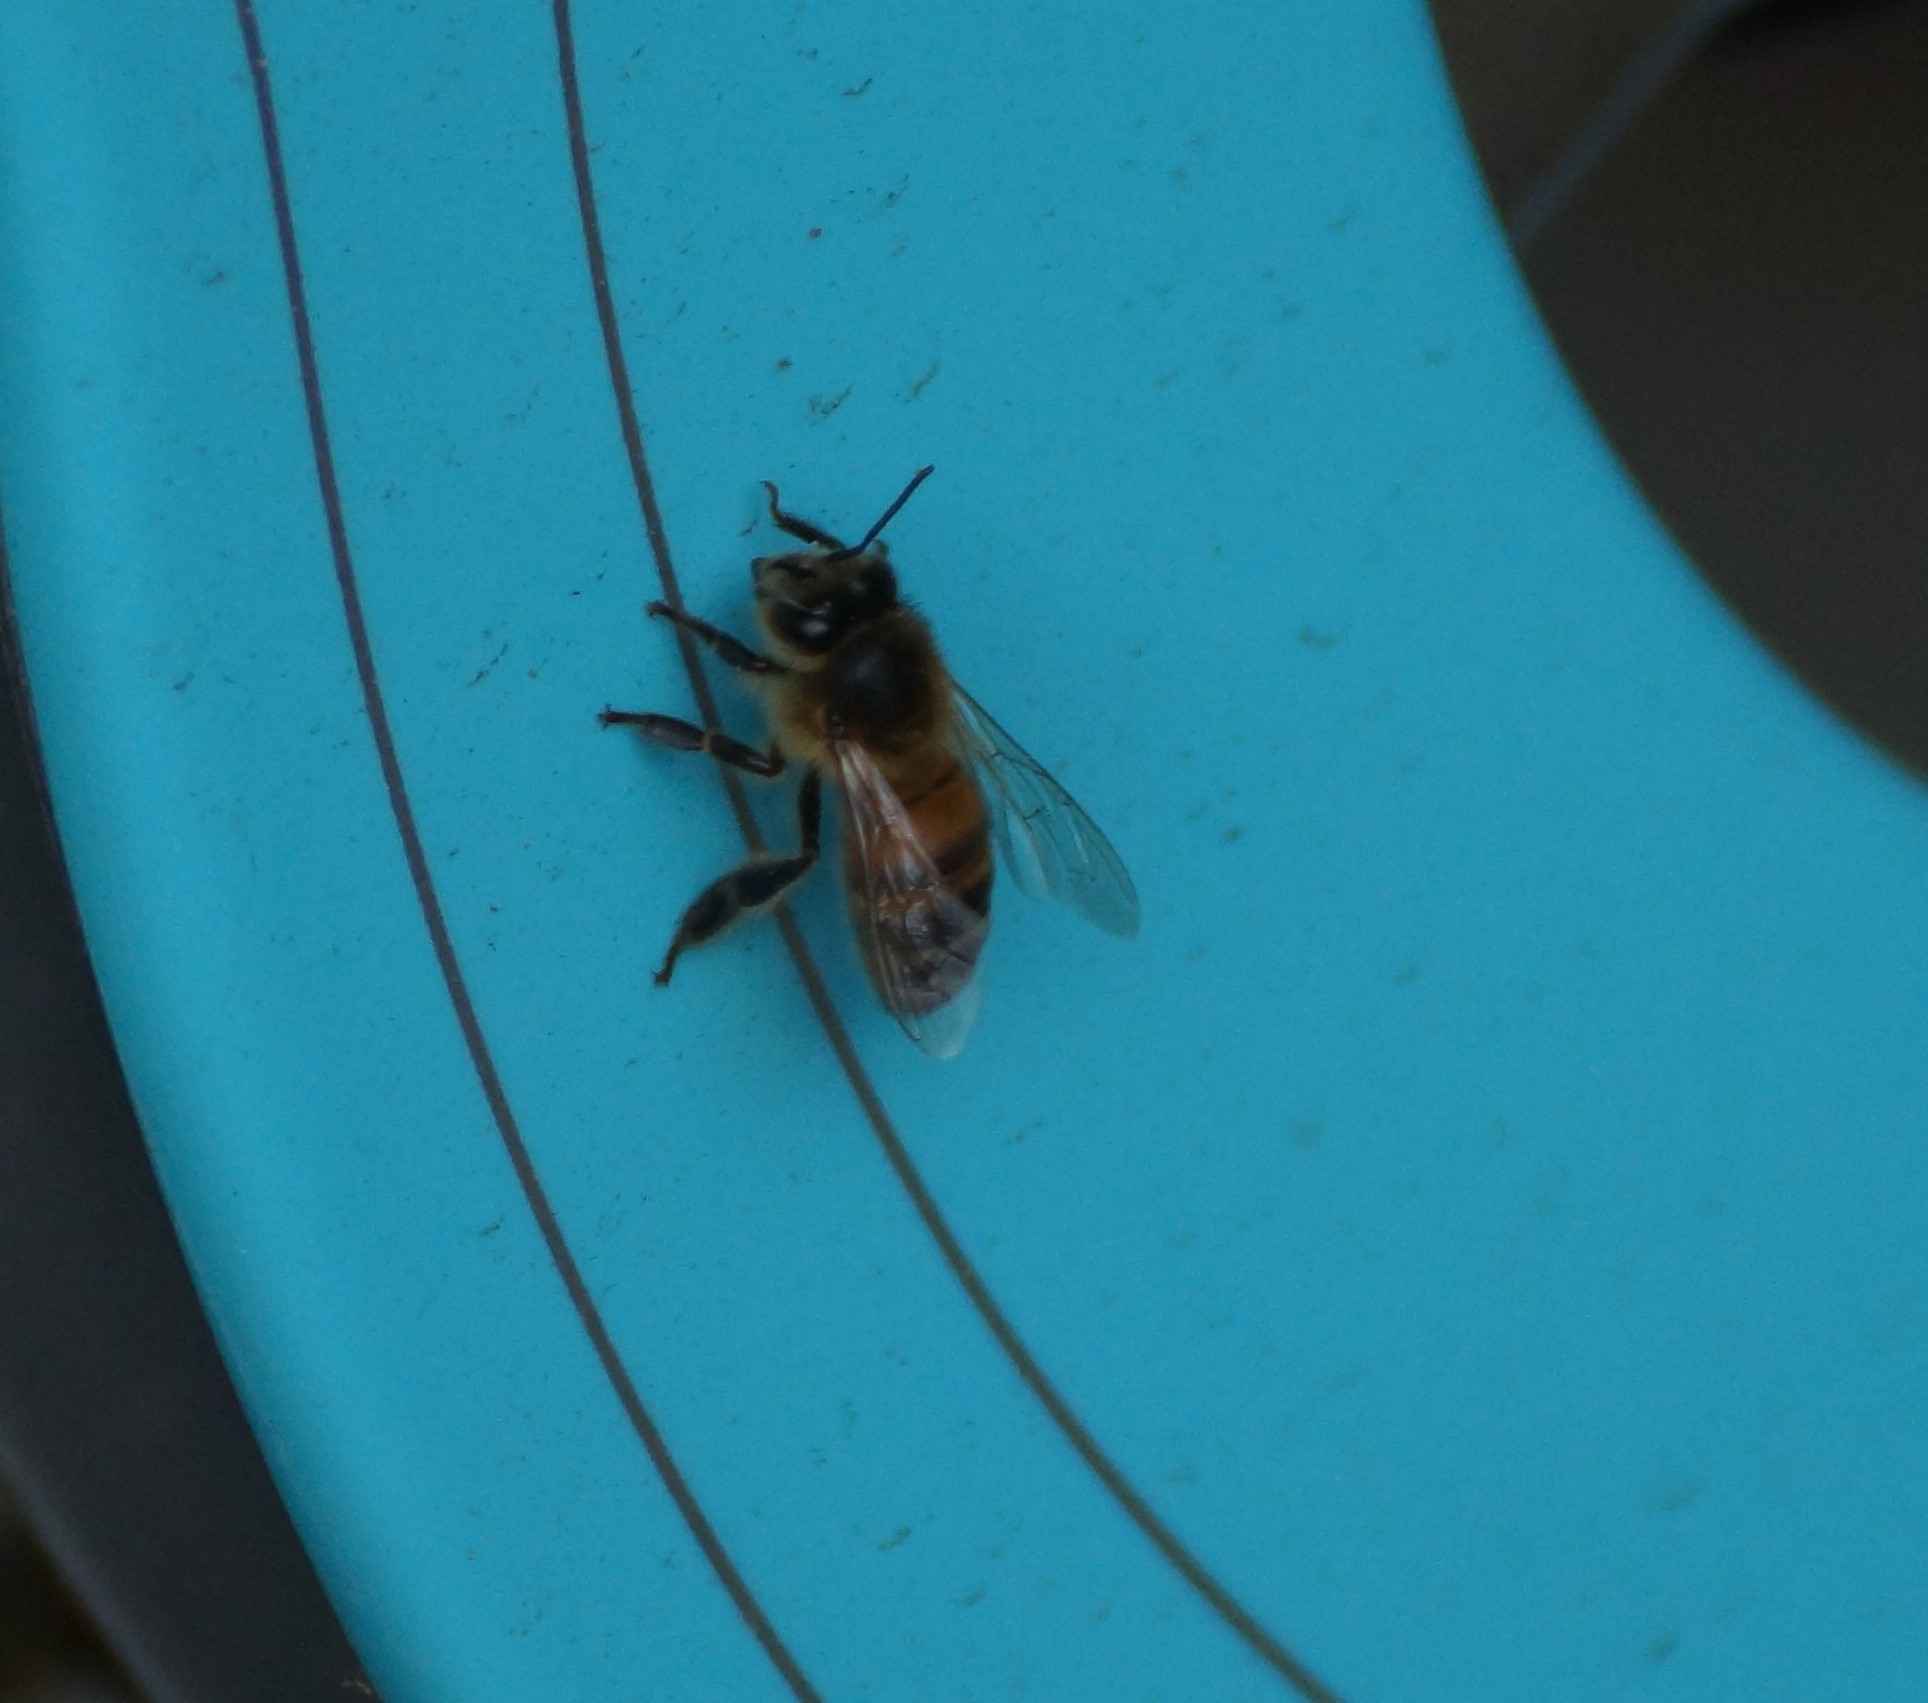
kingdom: Animalia
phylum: Arthropoda
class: Insecta
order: Hymenoptera
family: Apidae
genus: Apis
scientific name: Apis mellifera
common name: Honey bee
